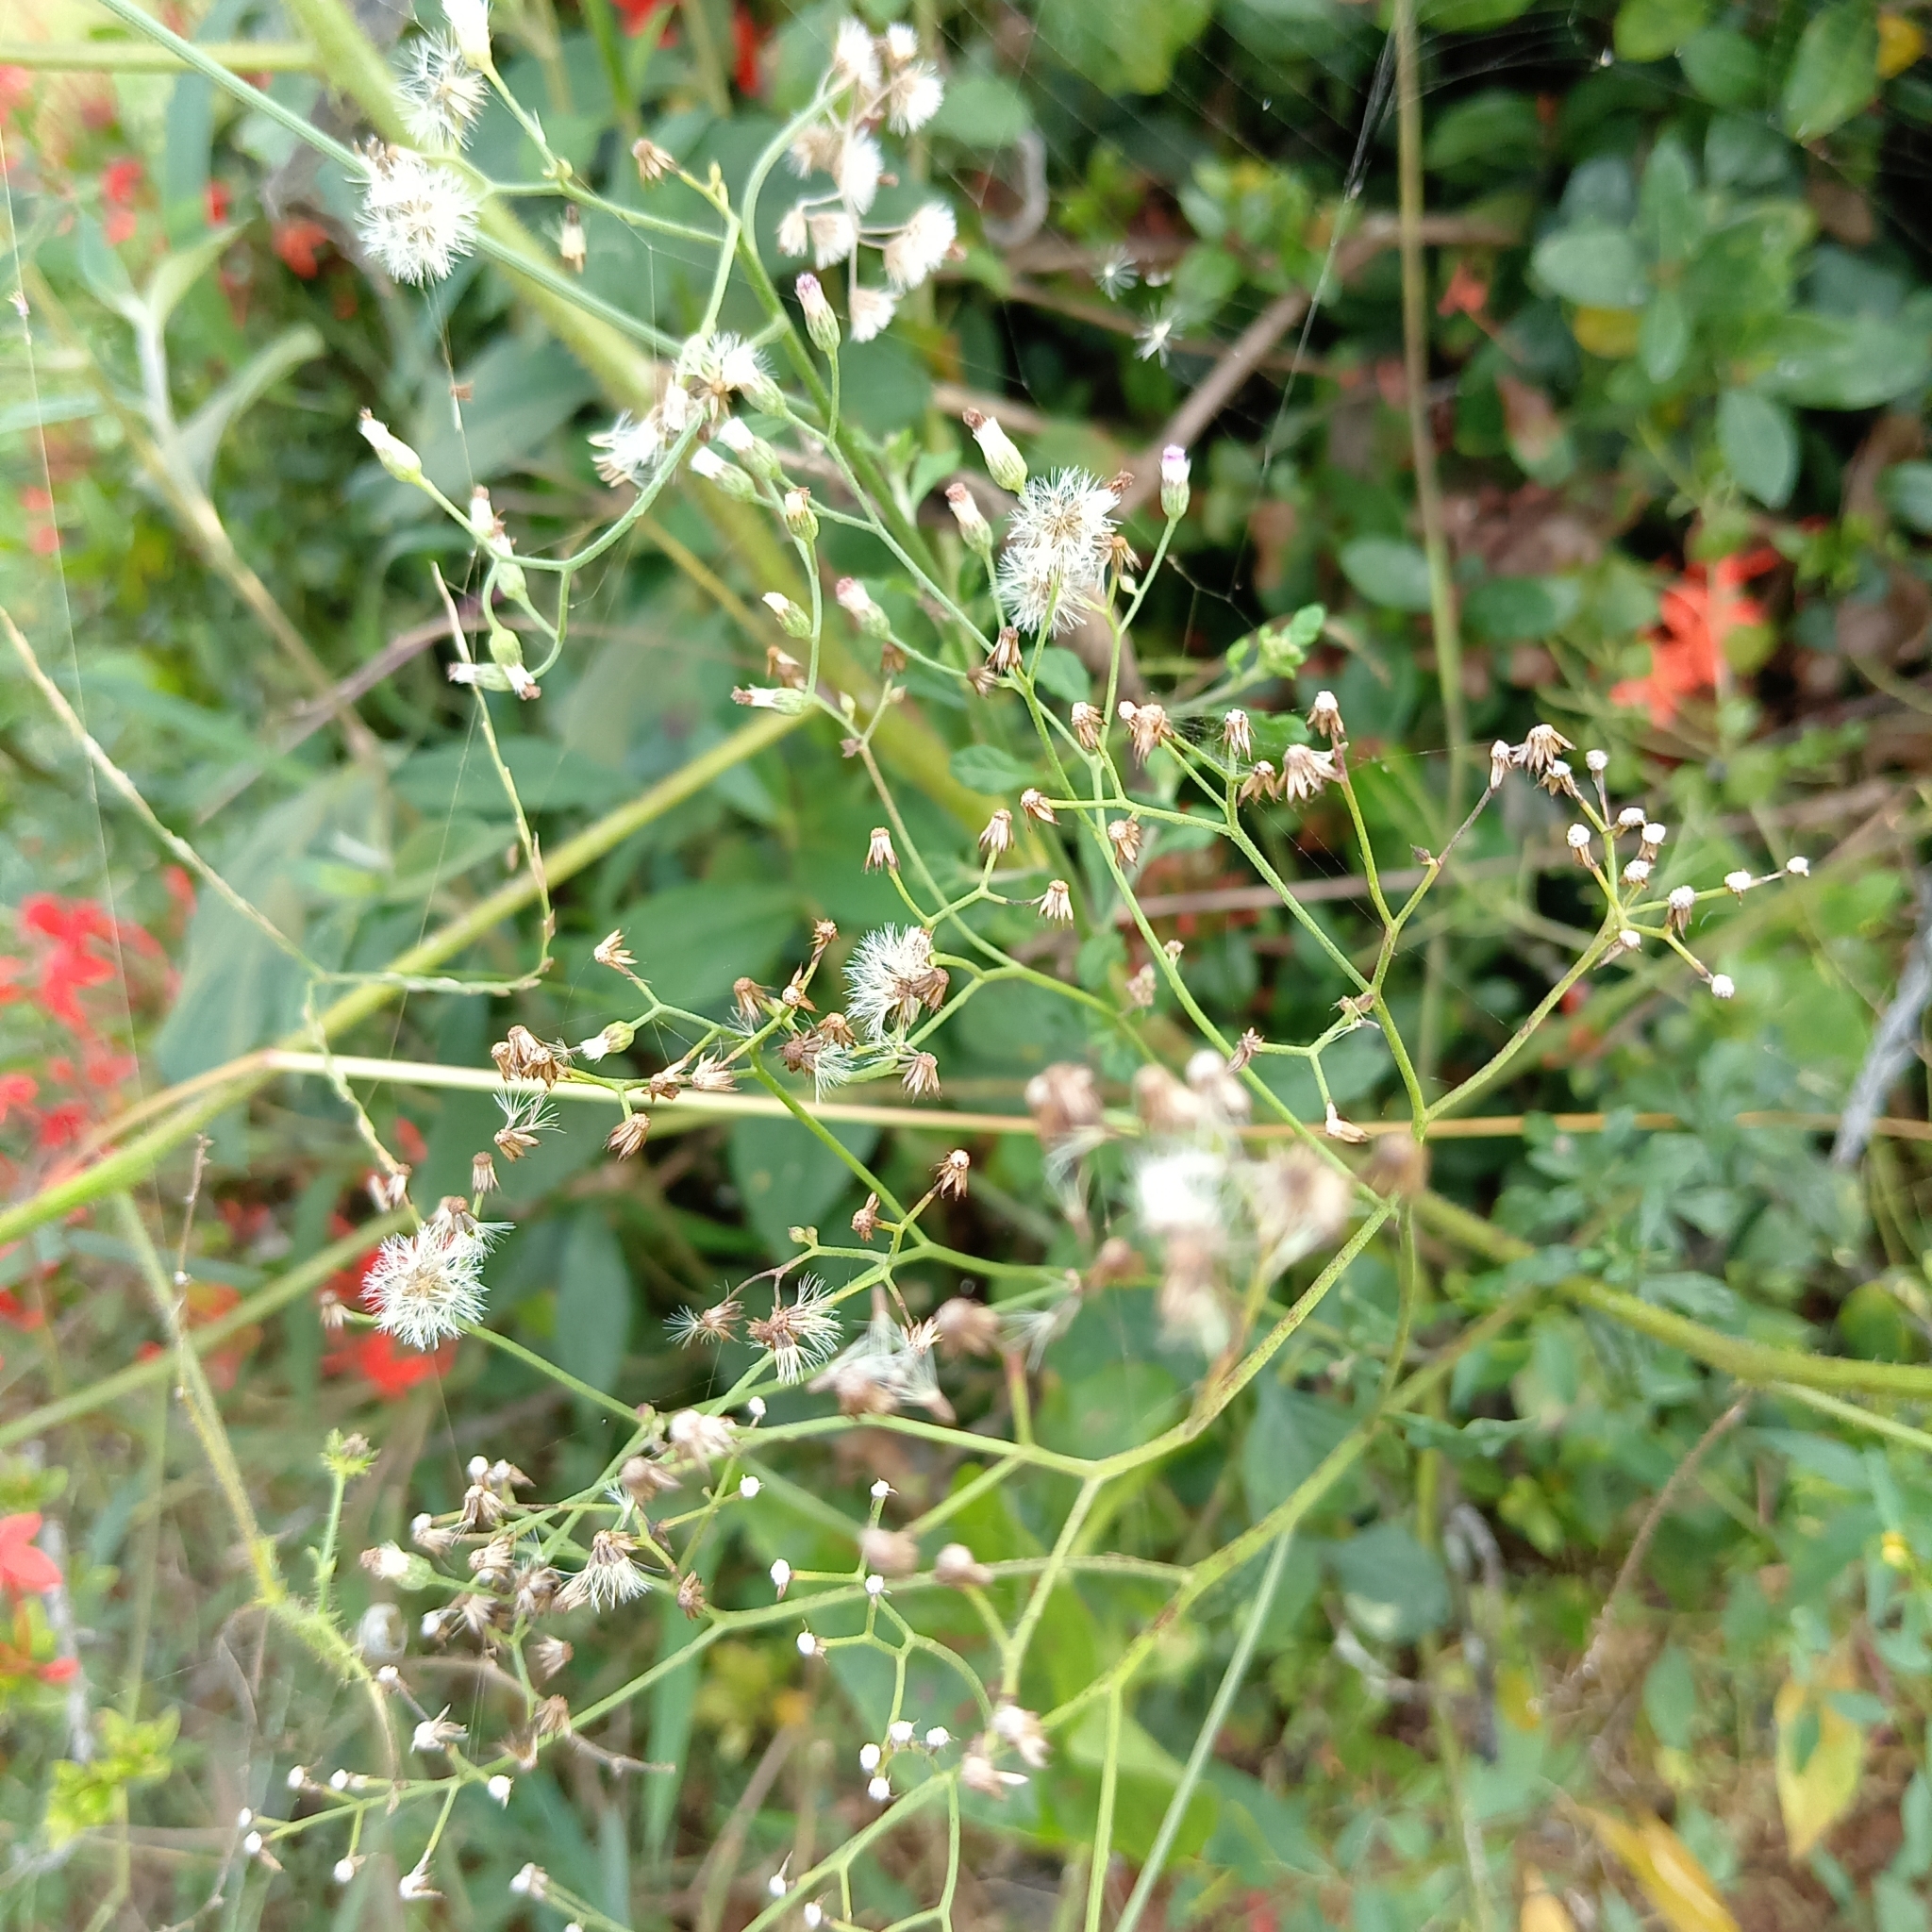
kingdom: Plantae
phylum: Tracheophyta
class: Magnoliopsida
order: Asterales
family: Asteraceae
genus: Parthenium
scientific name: Parthenium hysterophorus
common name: Santa maria feverfew
